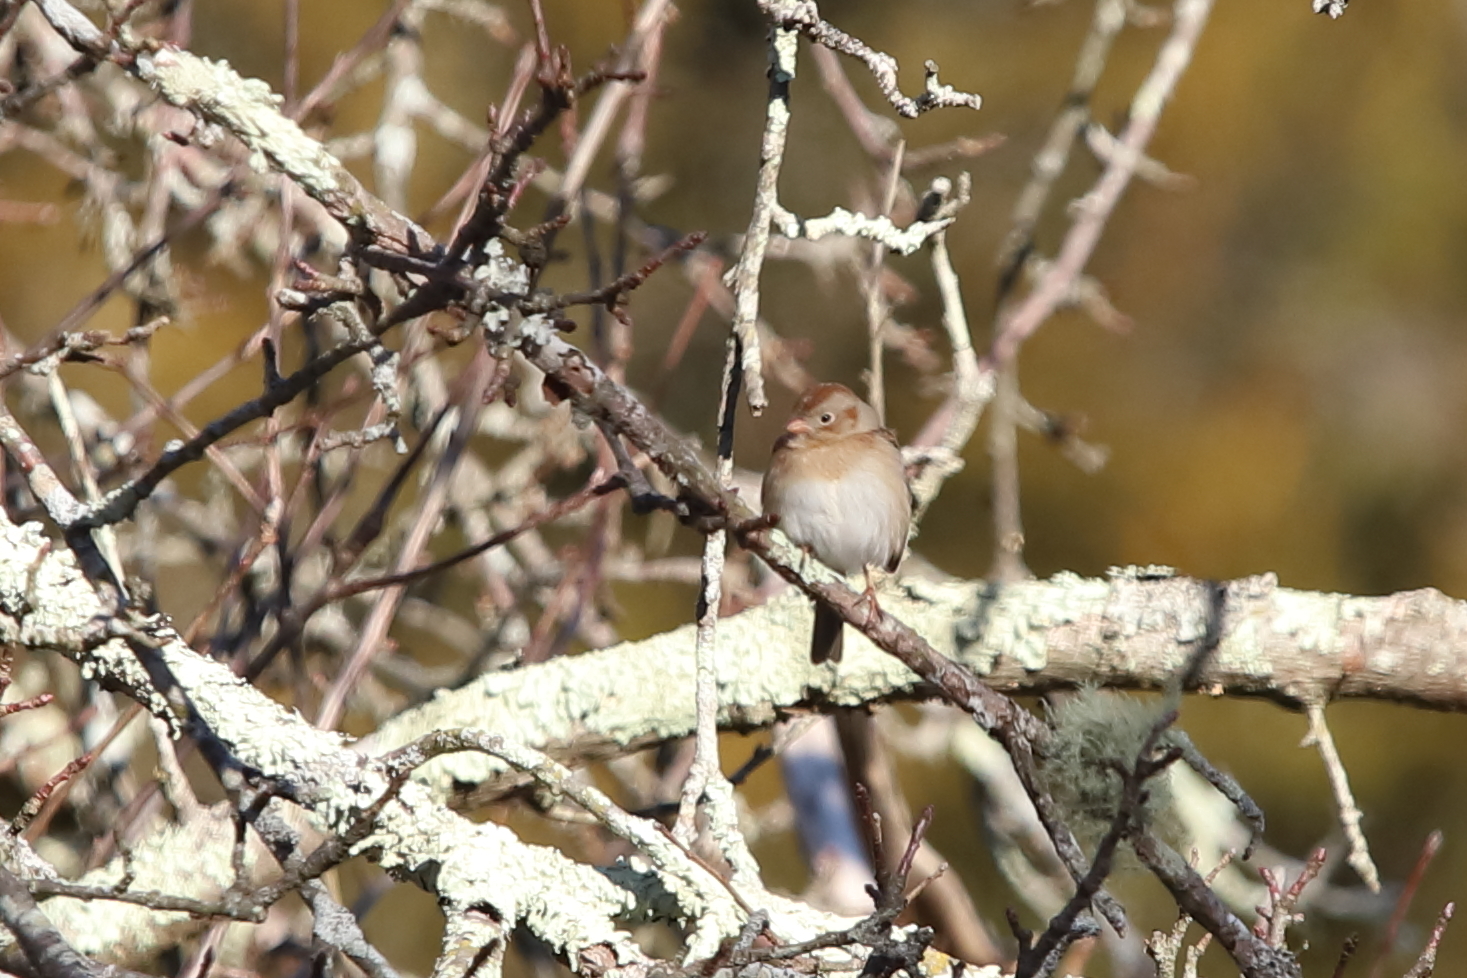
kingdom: Animalia
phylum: Chordata
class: Aves
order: Passeriformes
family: Passerellidae
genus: Spizella
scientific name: Spizella pusilla
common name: Field sparrow
